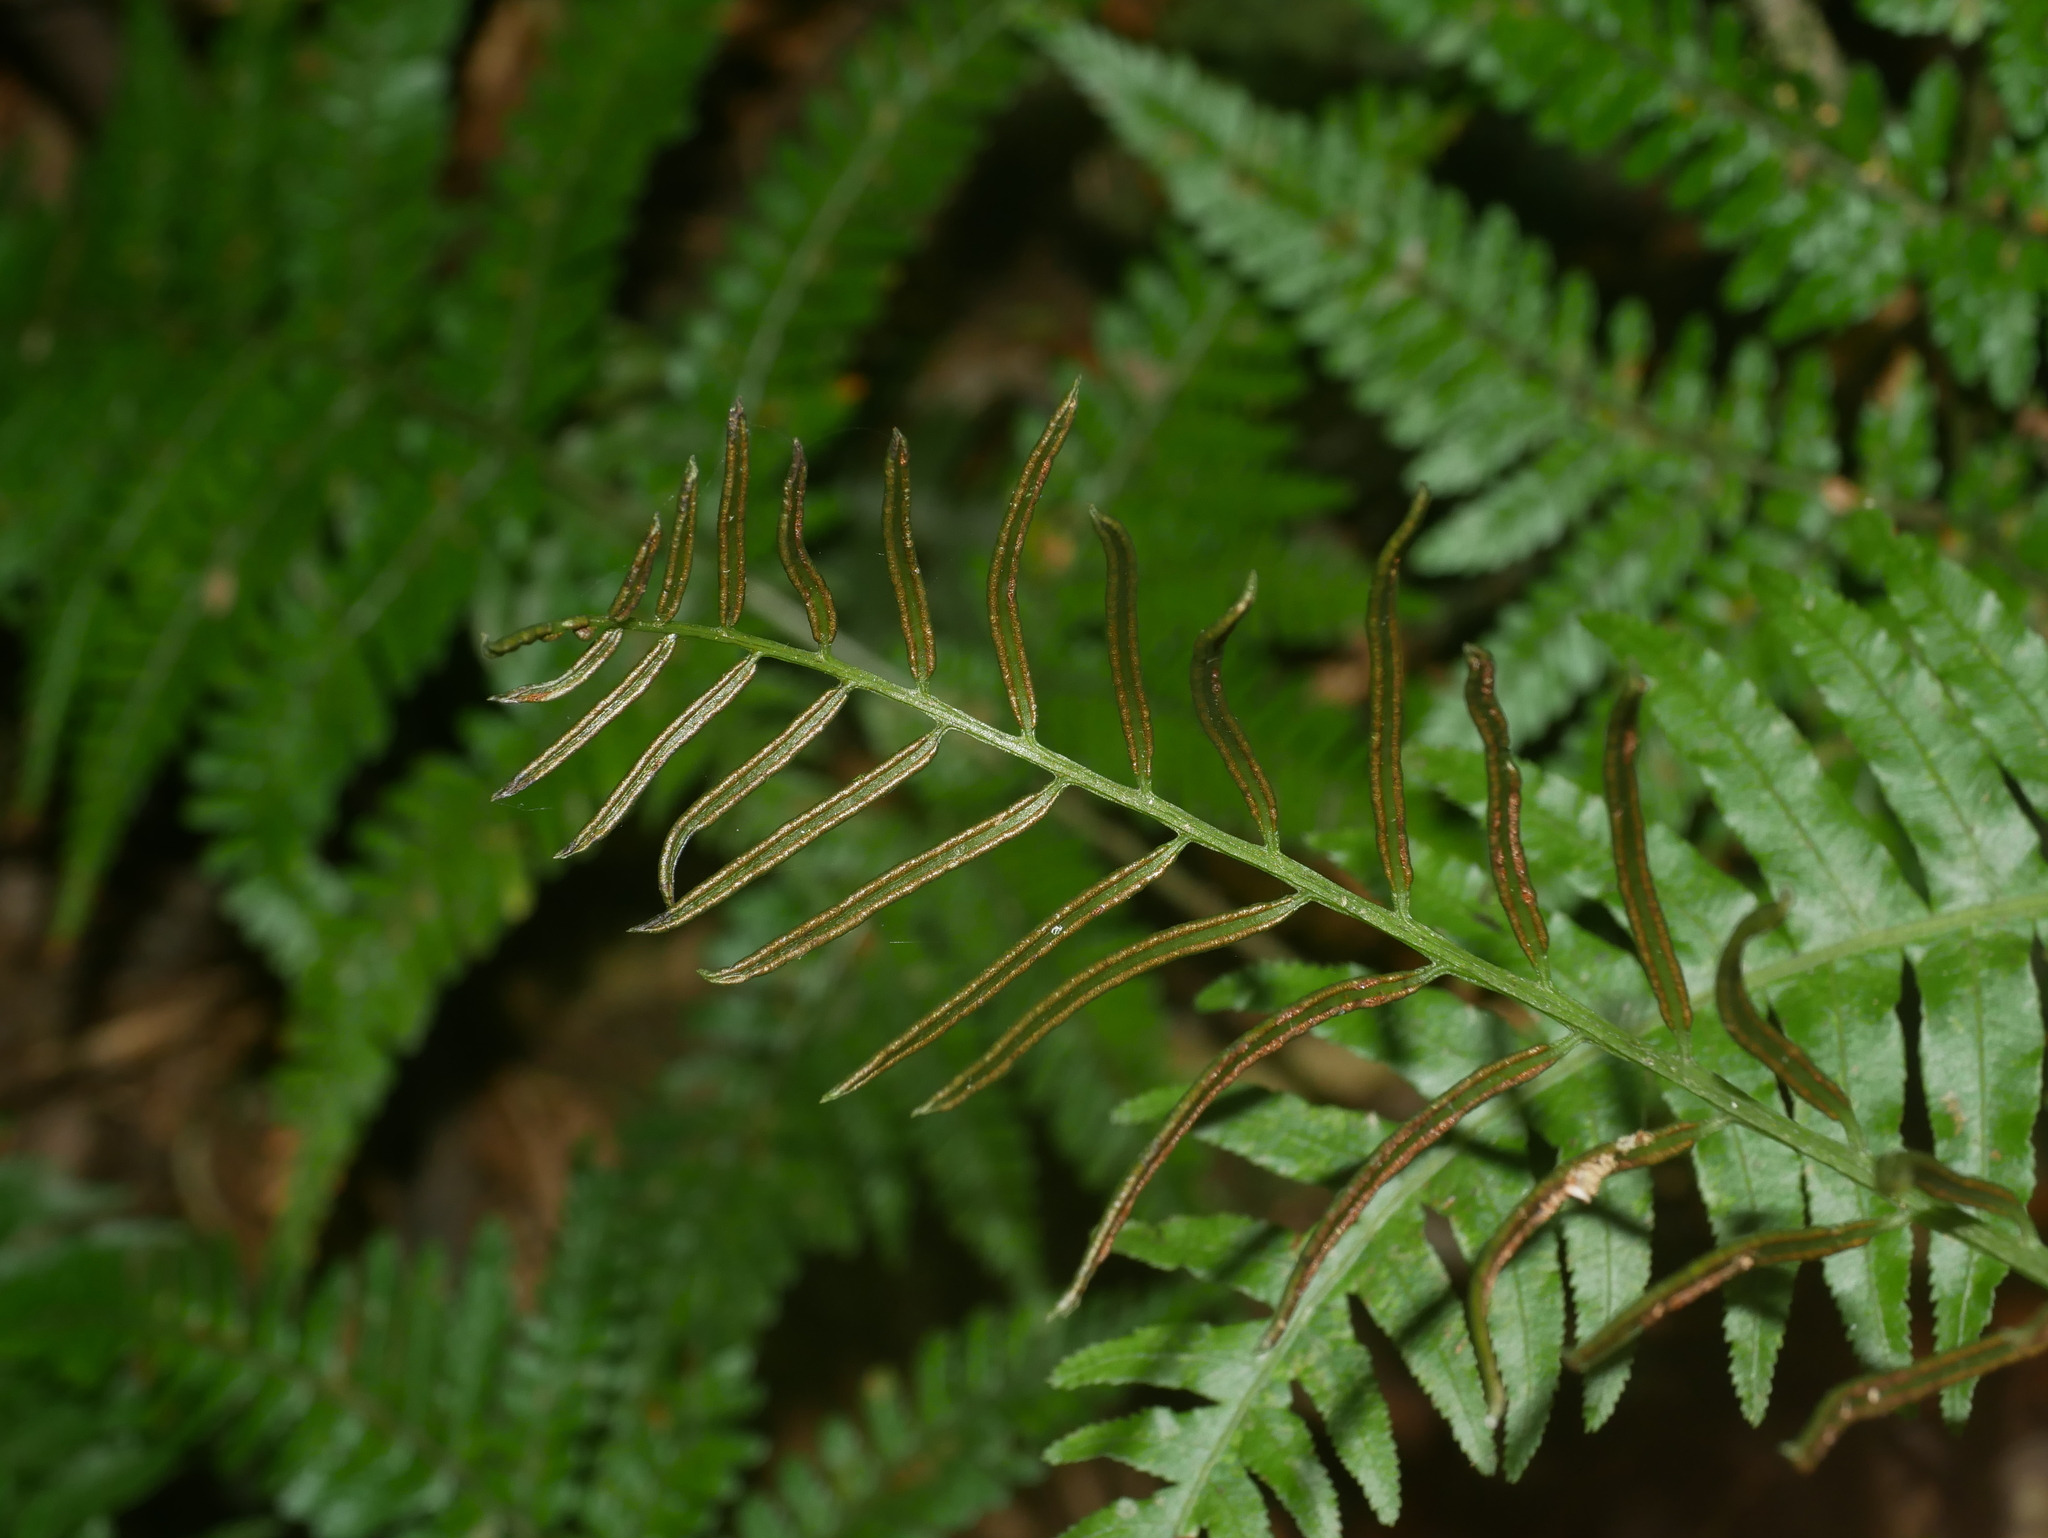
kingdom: Plantae
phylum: Tracheophyta
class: Polypodiopsida
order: Cyatheales
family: Plagiogyriaceae
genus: Plagiogyria
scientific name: Plagiogyria stenoptera
